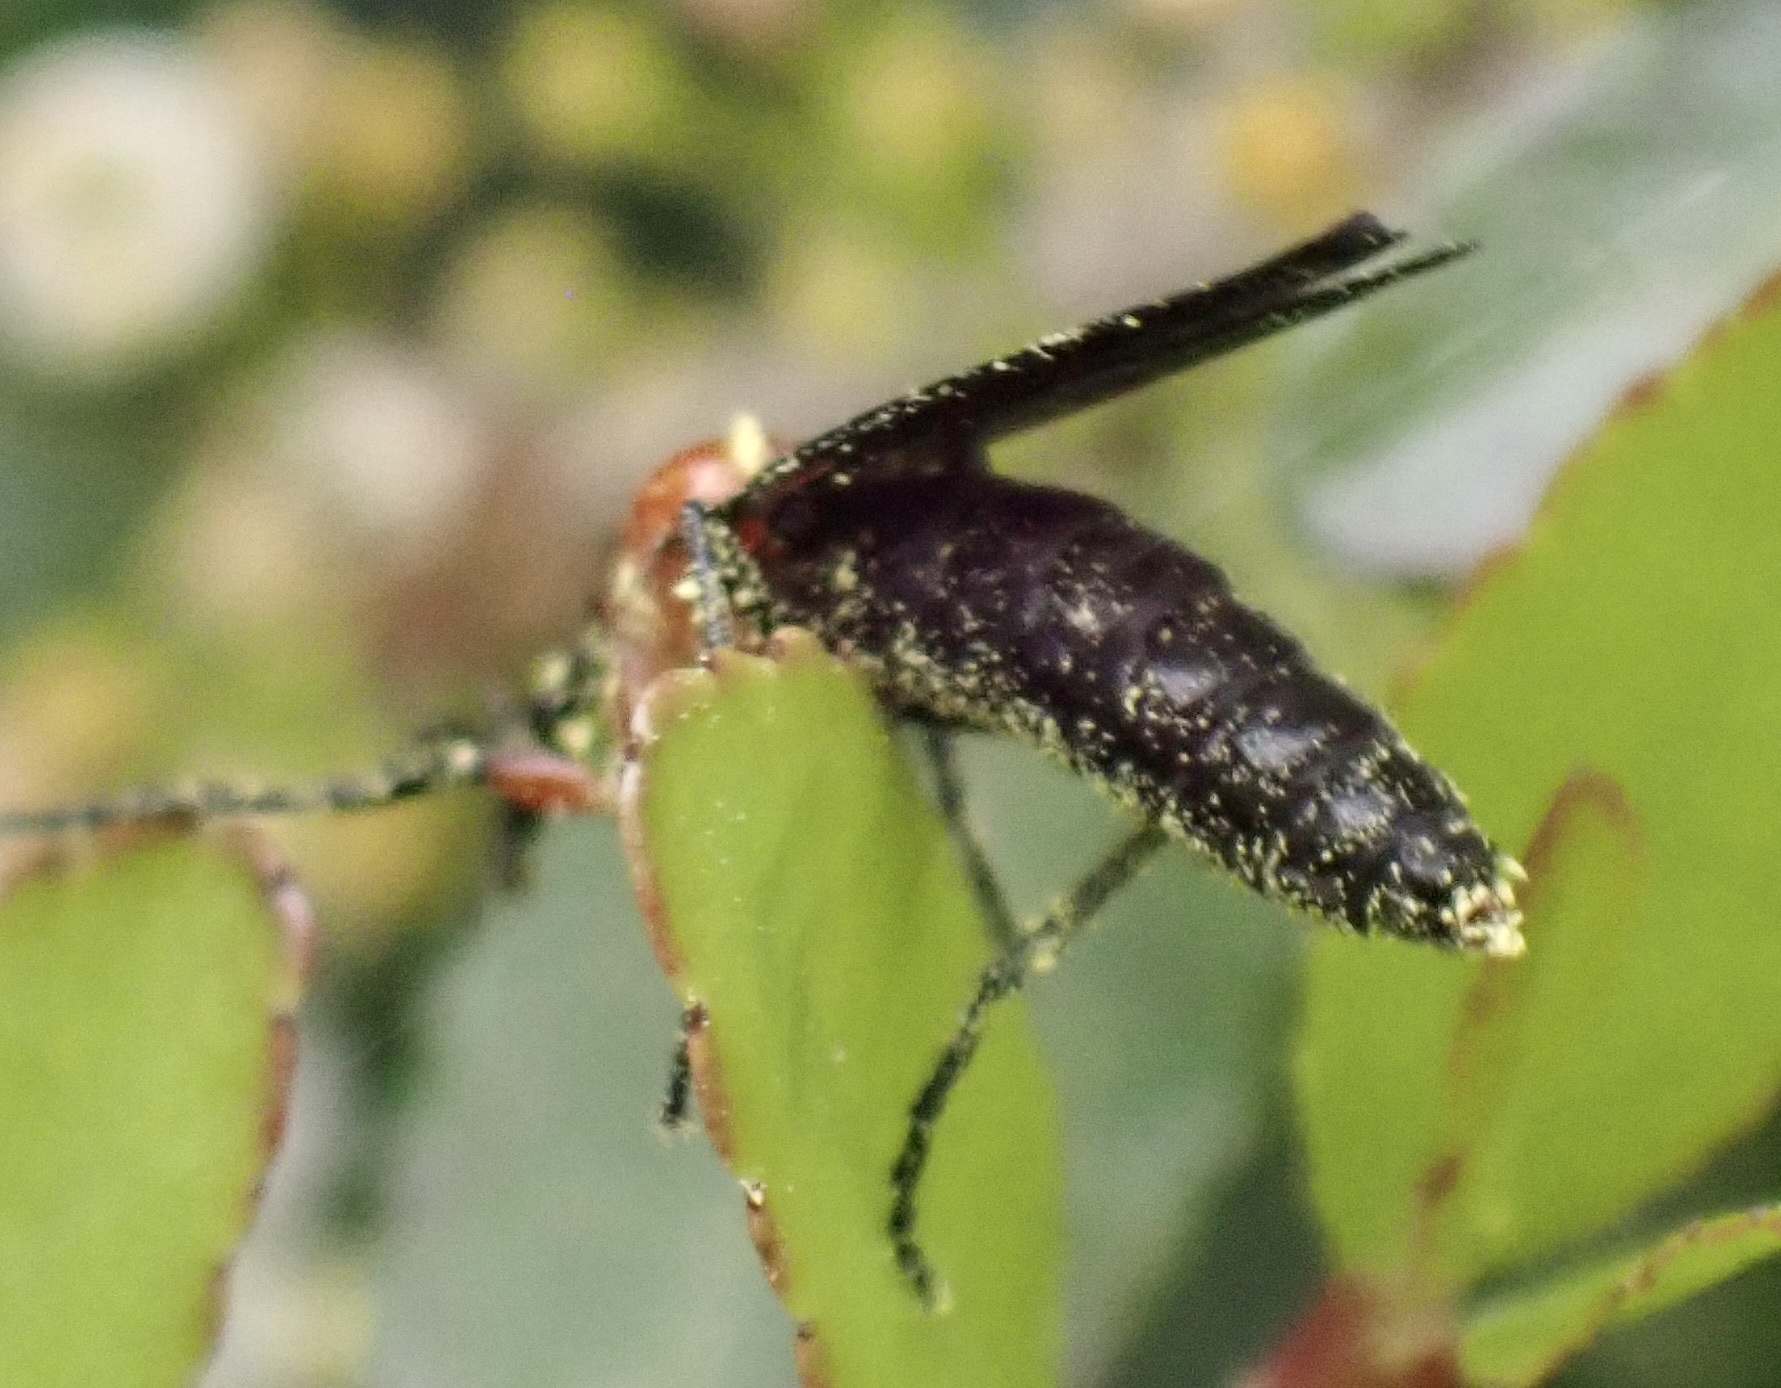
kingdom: Animalia
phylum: Arthropoda
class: Insecta
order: Diptera
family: Bibionidae
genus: Dilophus
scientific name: Dilophus spinipes
